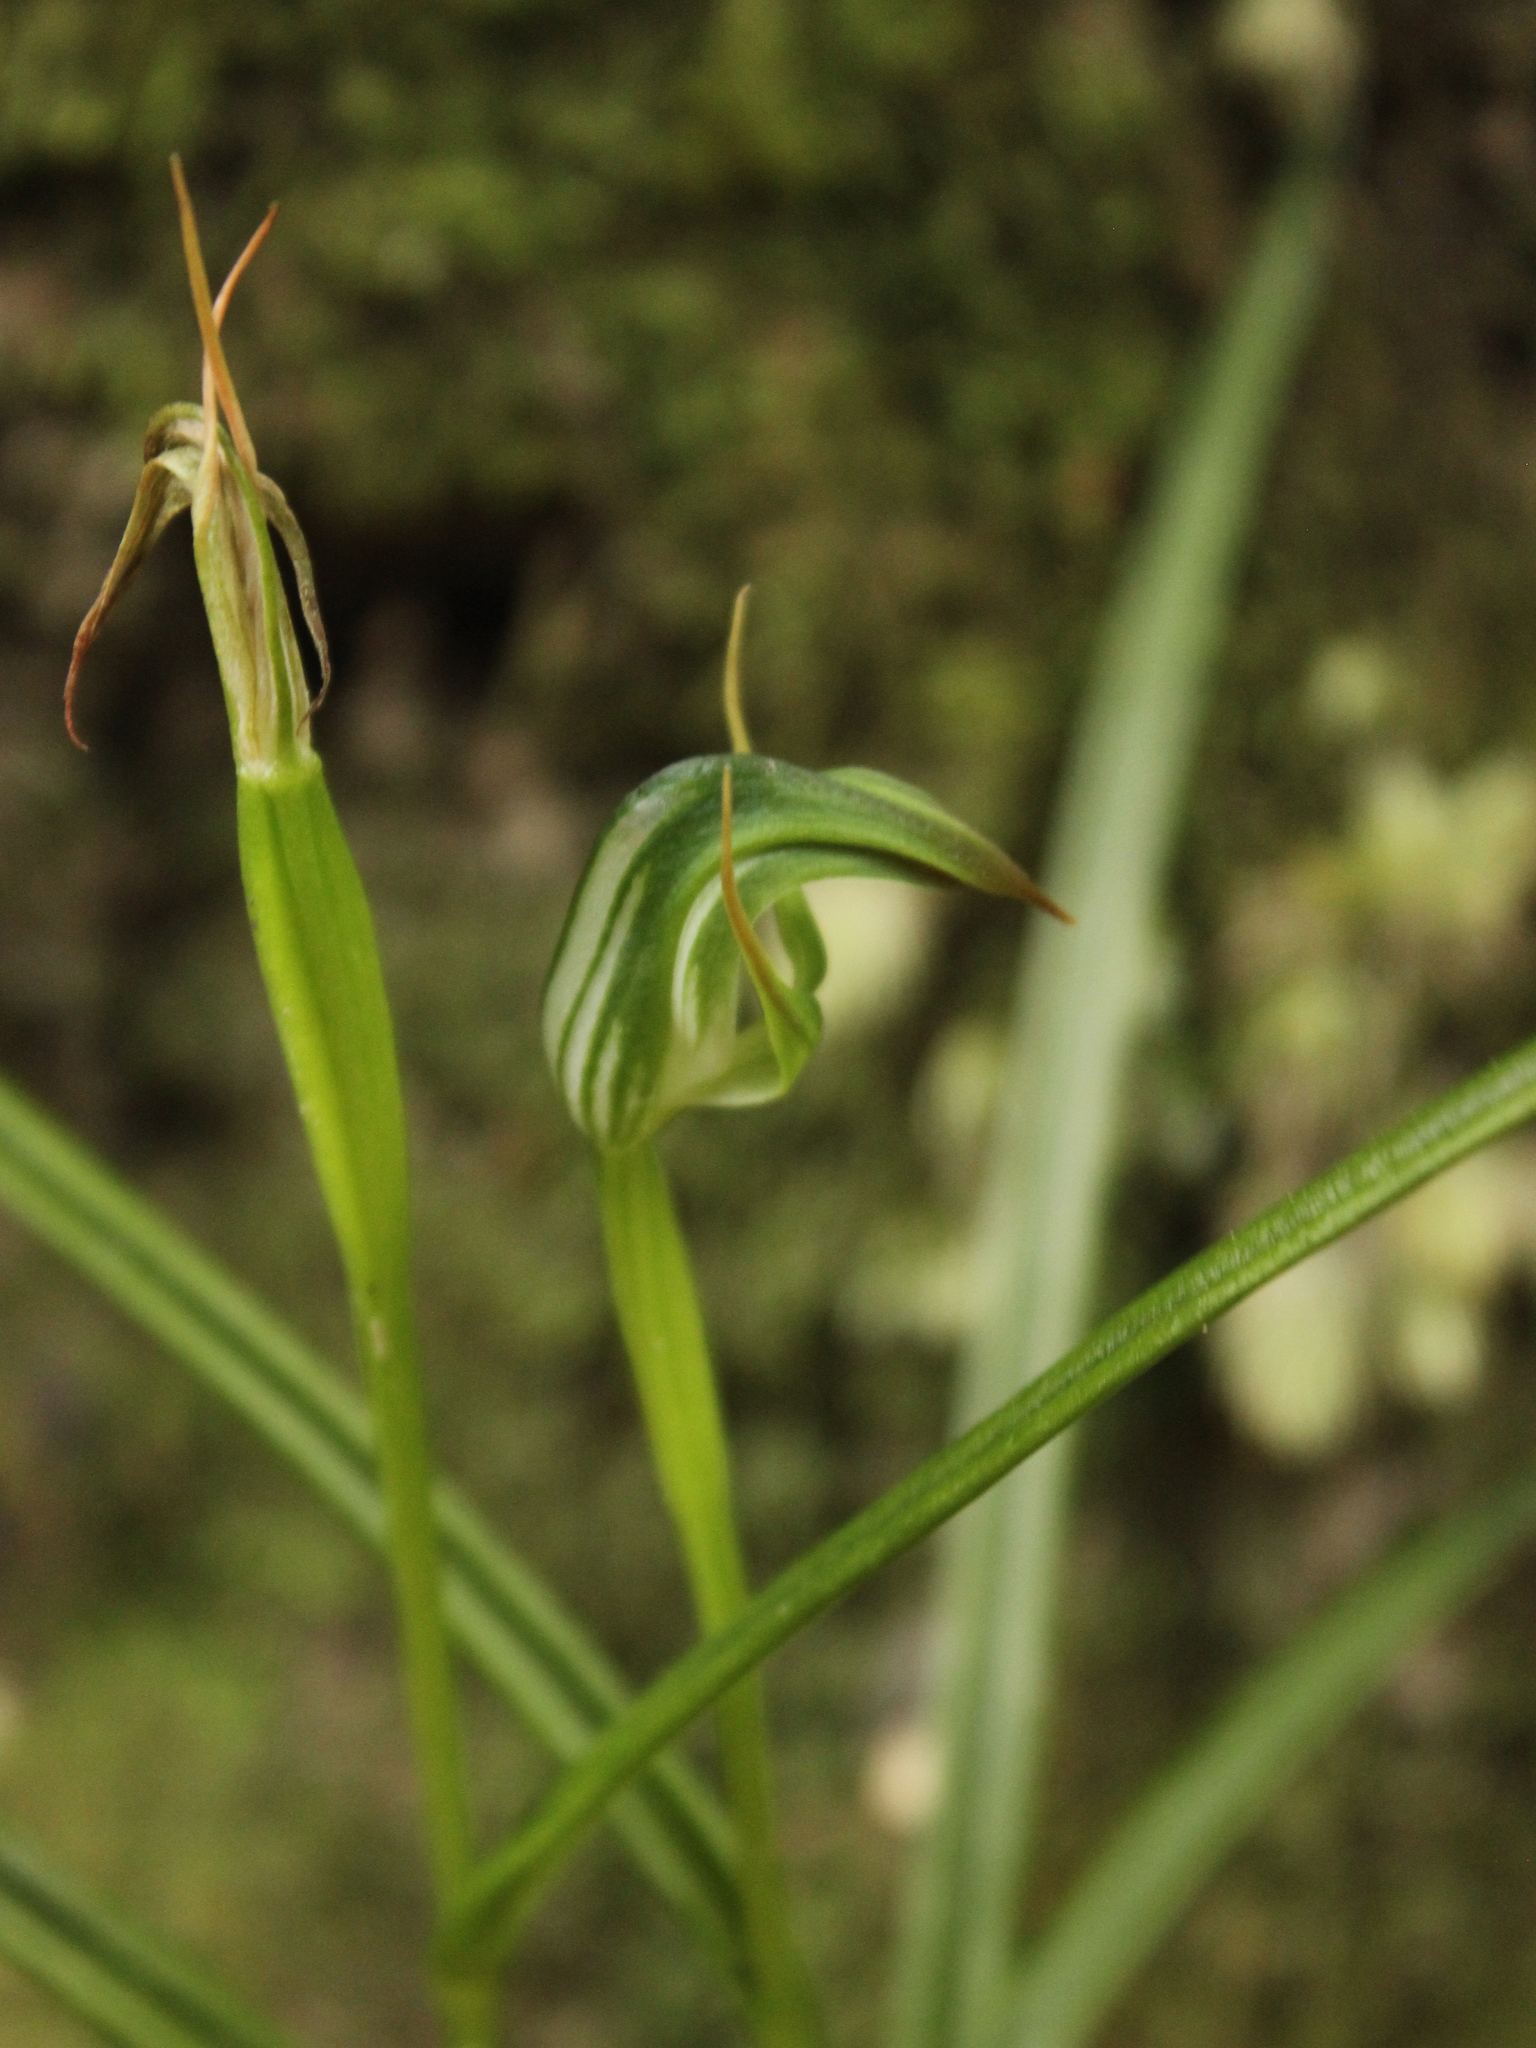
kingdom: Plantae
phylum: Tracheophyta
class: Liliopsida
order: Asparagales
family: Orchidaceae
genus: Pterostylis
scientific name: Pterostylis graminea
